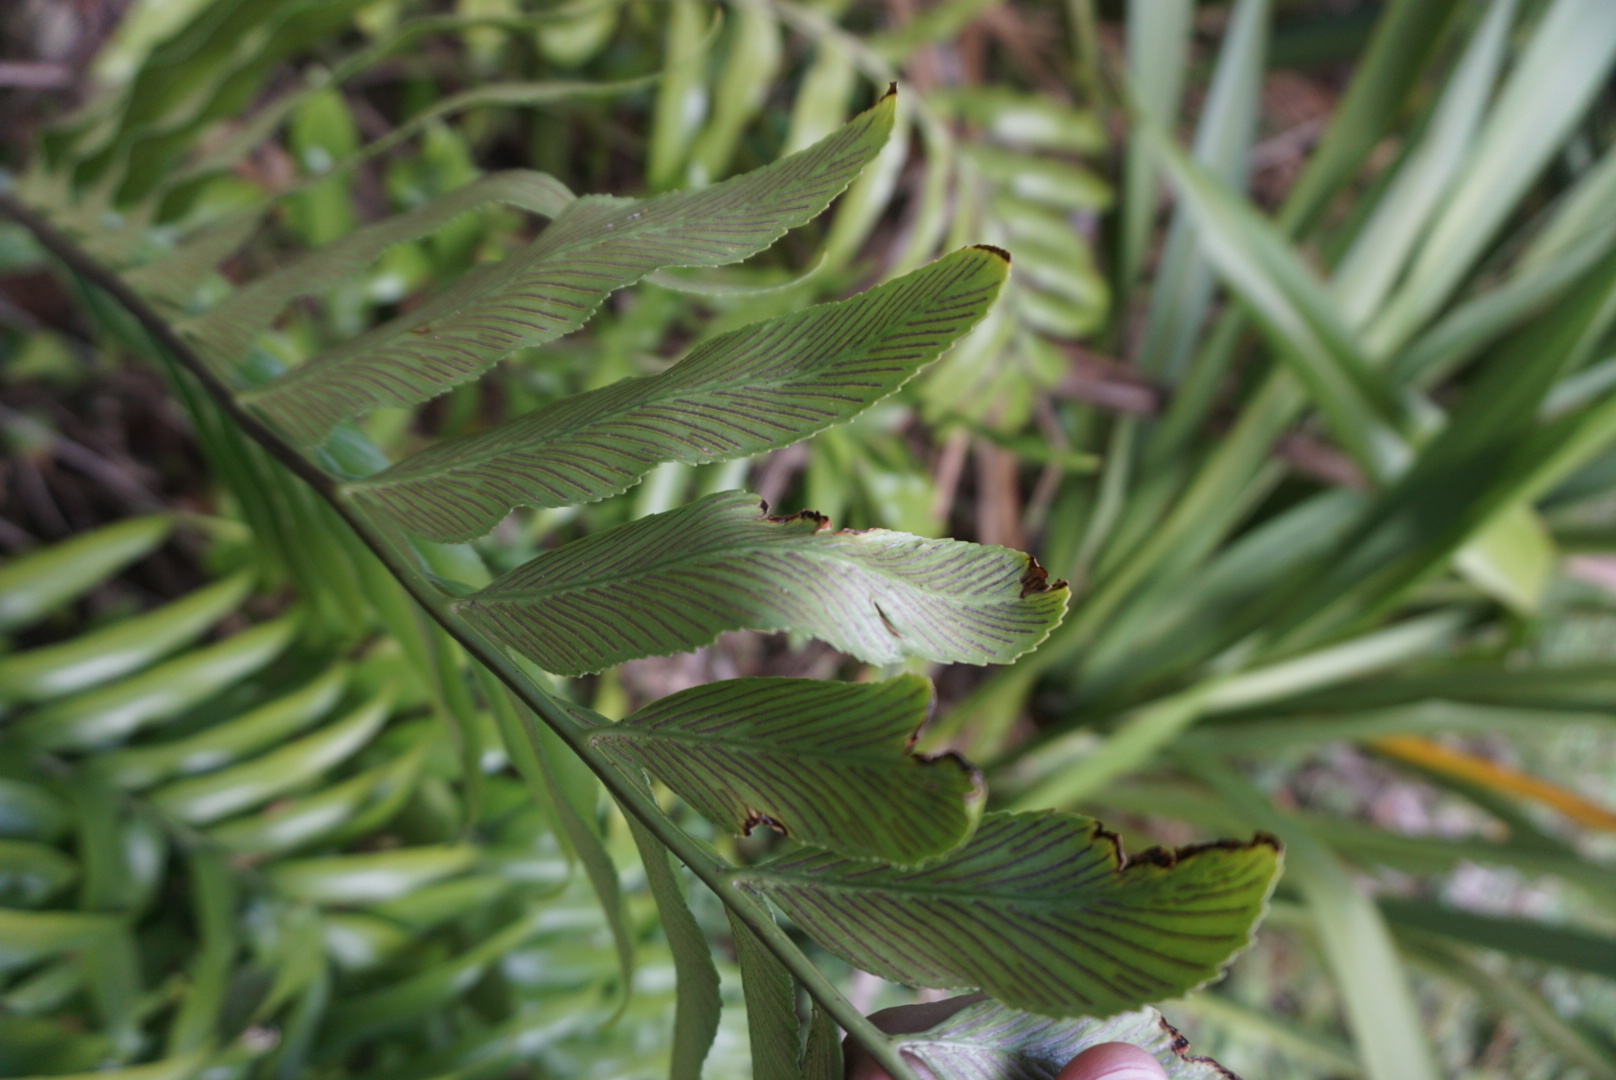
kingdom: Plantae
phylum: Tracheophyta
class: Polypodiopsida
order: Polypodiales
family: Aspleniaceae
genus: Asplenium
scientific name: Asplenium oblongifolium
